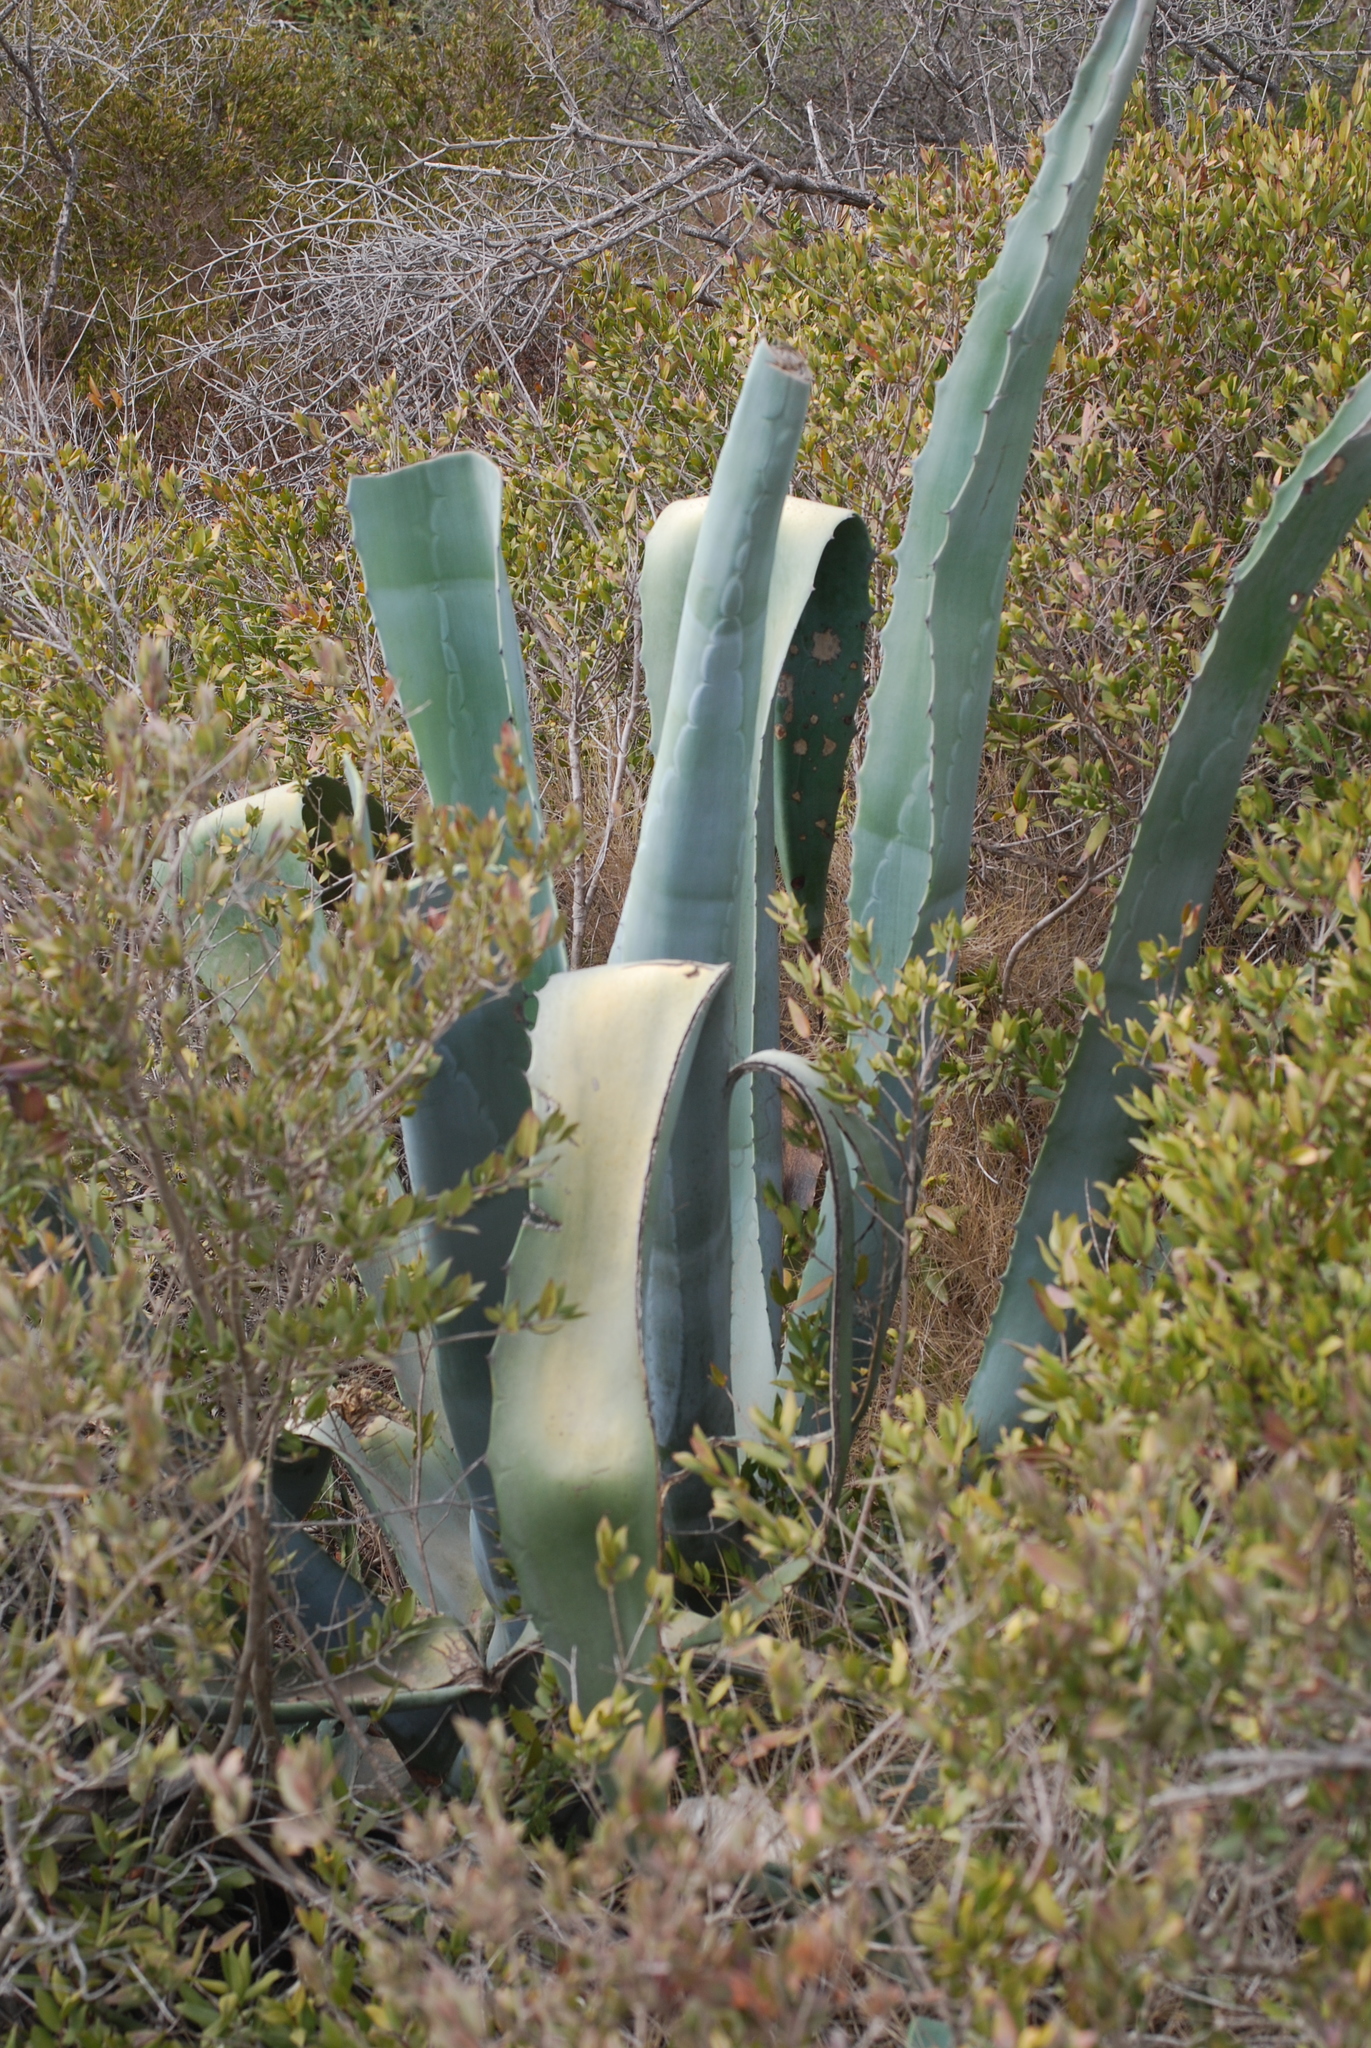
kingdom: Plantae
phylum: Tracheophyta
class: Liliopsida
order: Asparagales
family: Asparagaceae
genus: Agave
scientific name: Agave americana
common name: Centuryplant
